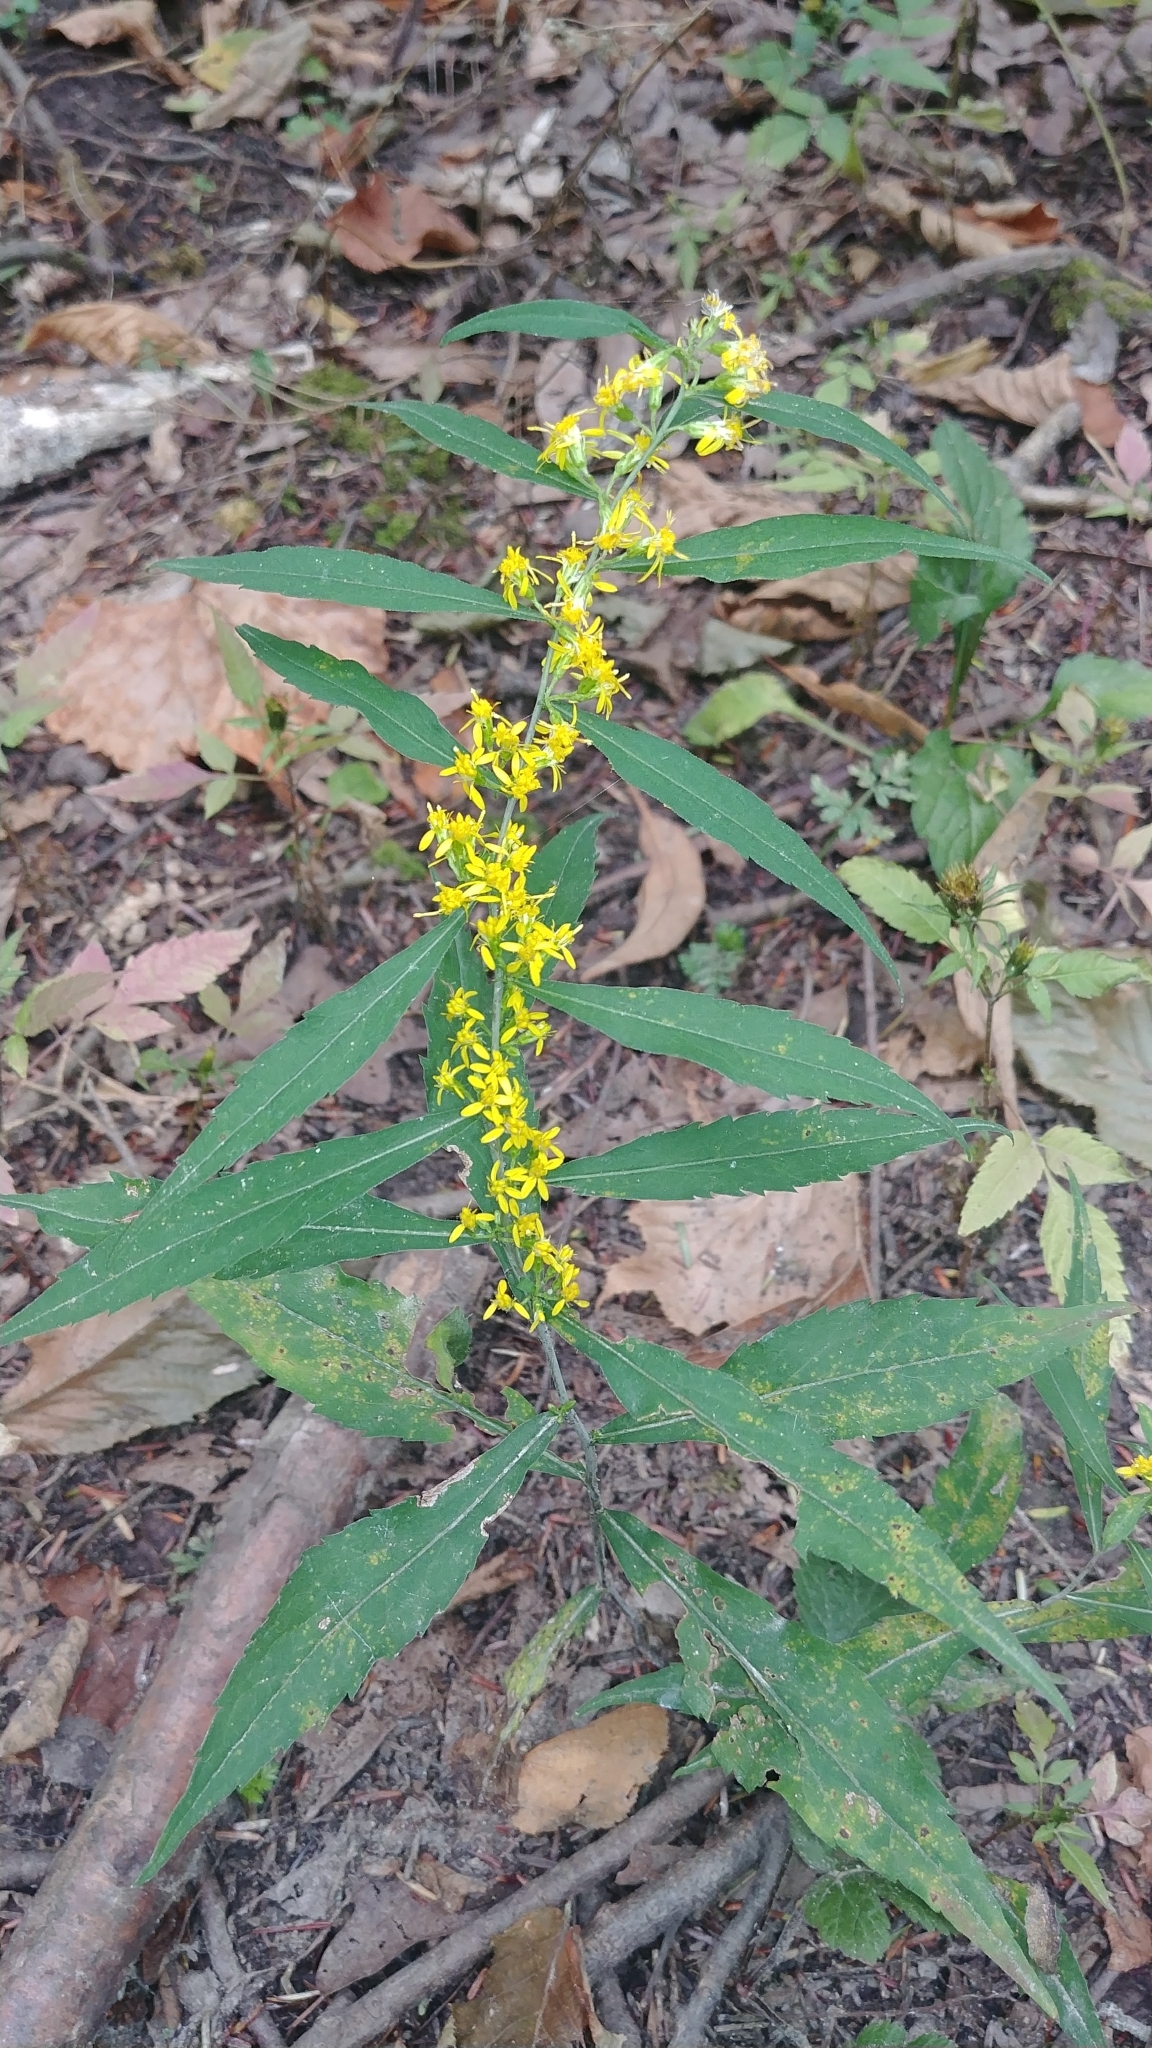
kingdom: Plantae
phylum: Tracheophyta
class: Magnoliopsida
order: Asterales
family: Asteraceae
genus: Solidago
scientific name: Solidago caesia
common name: Woodland goldenrod
